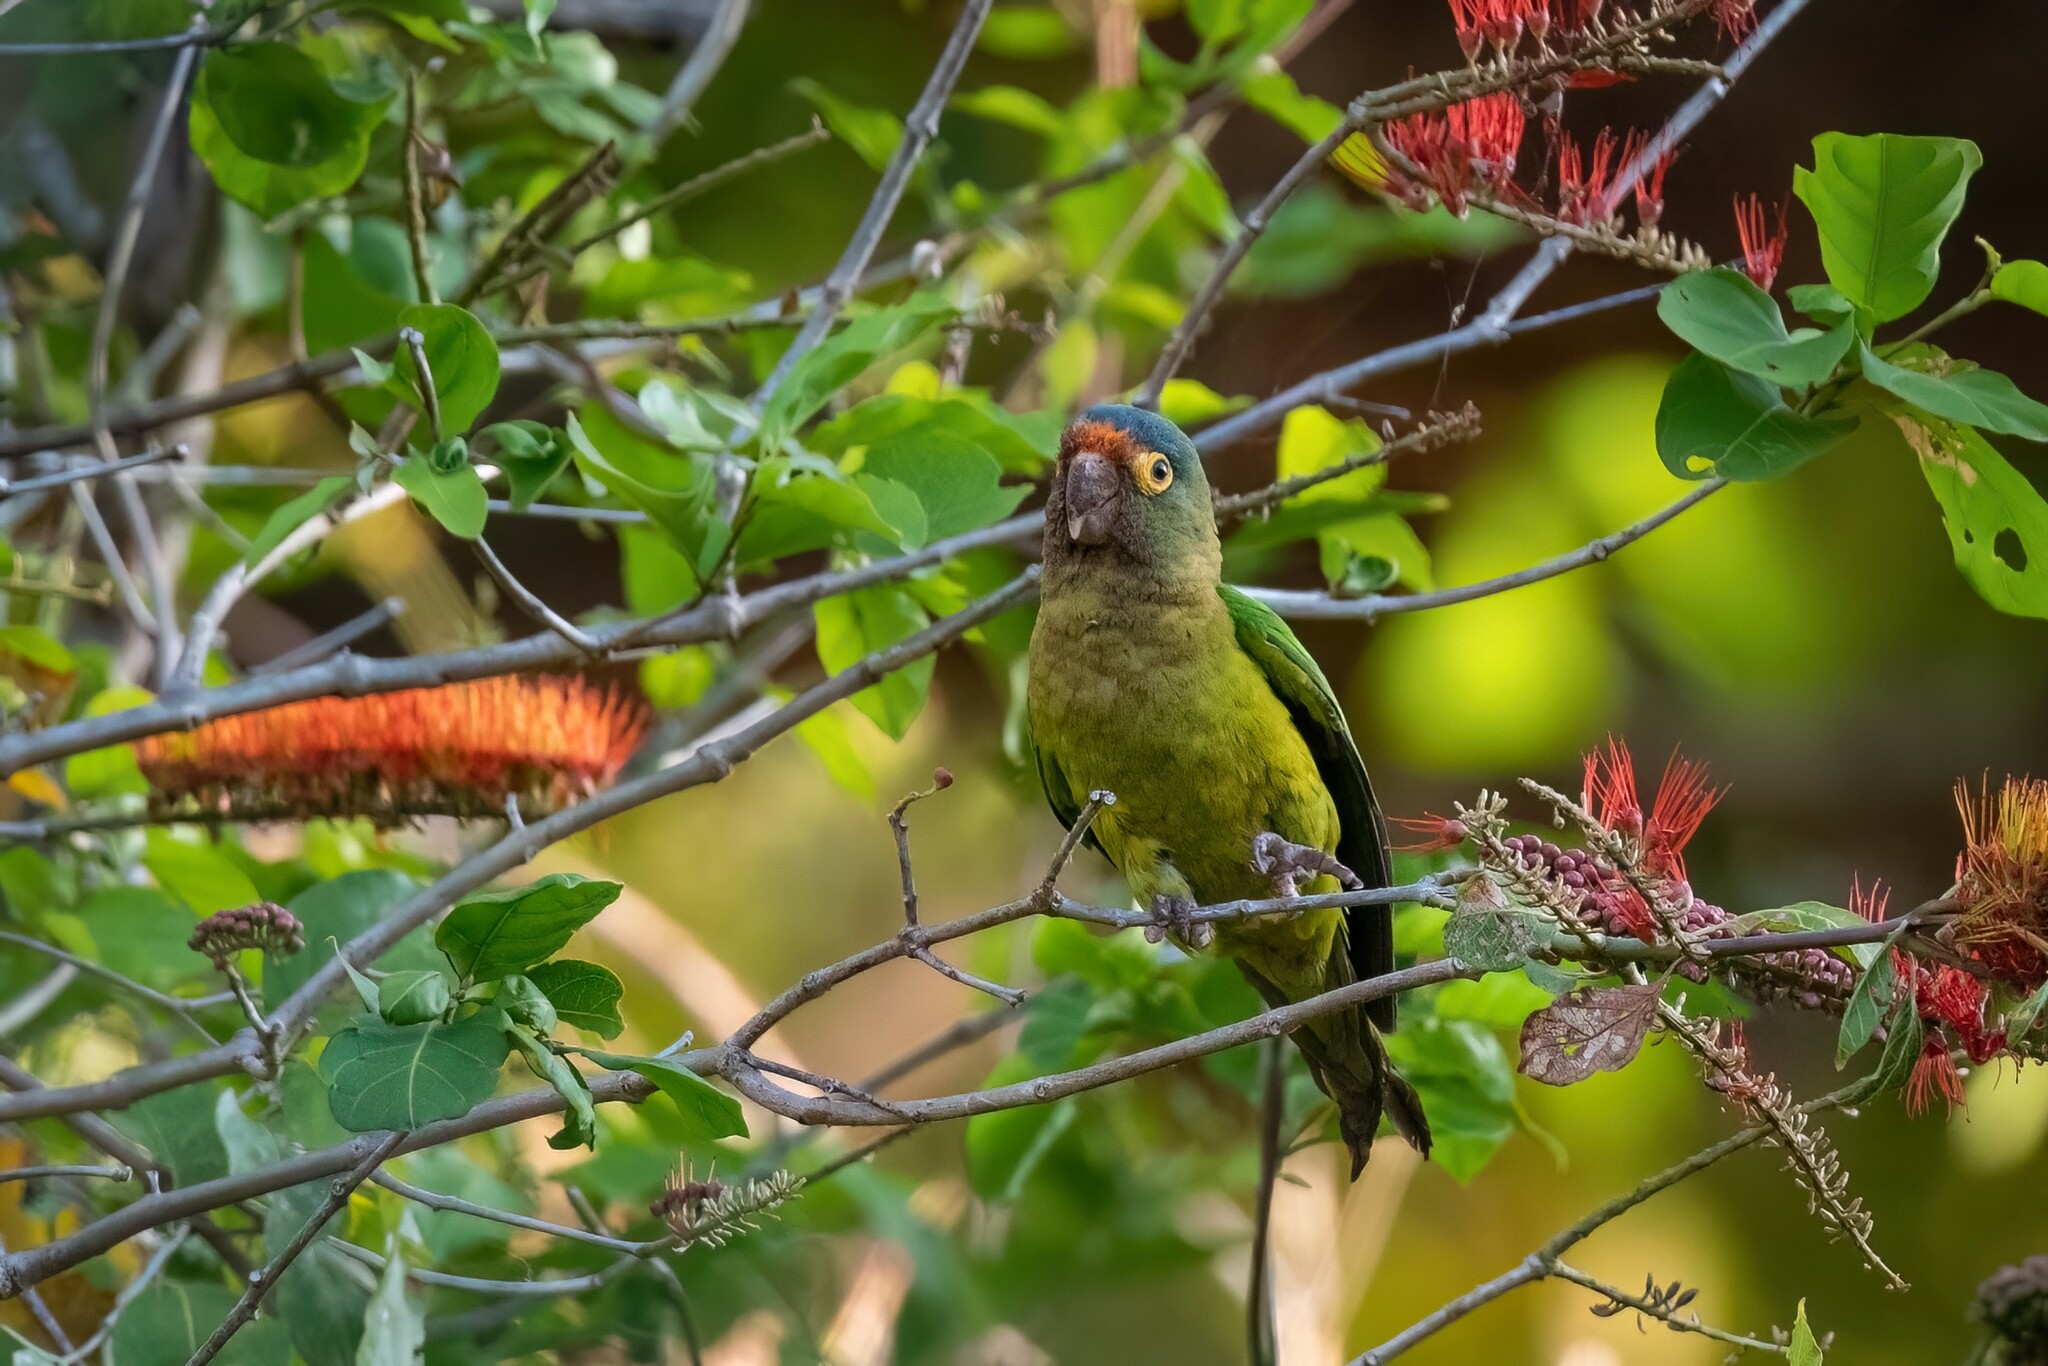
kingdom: Animalia
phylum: Chordata
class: Aves
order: Psittaciformes
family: Psittacidae
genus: Aratinga
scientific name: Aratinga canicularis
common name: Orange-fronted parakeet
